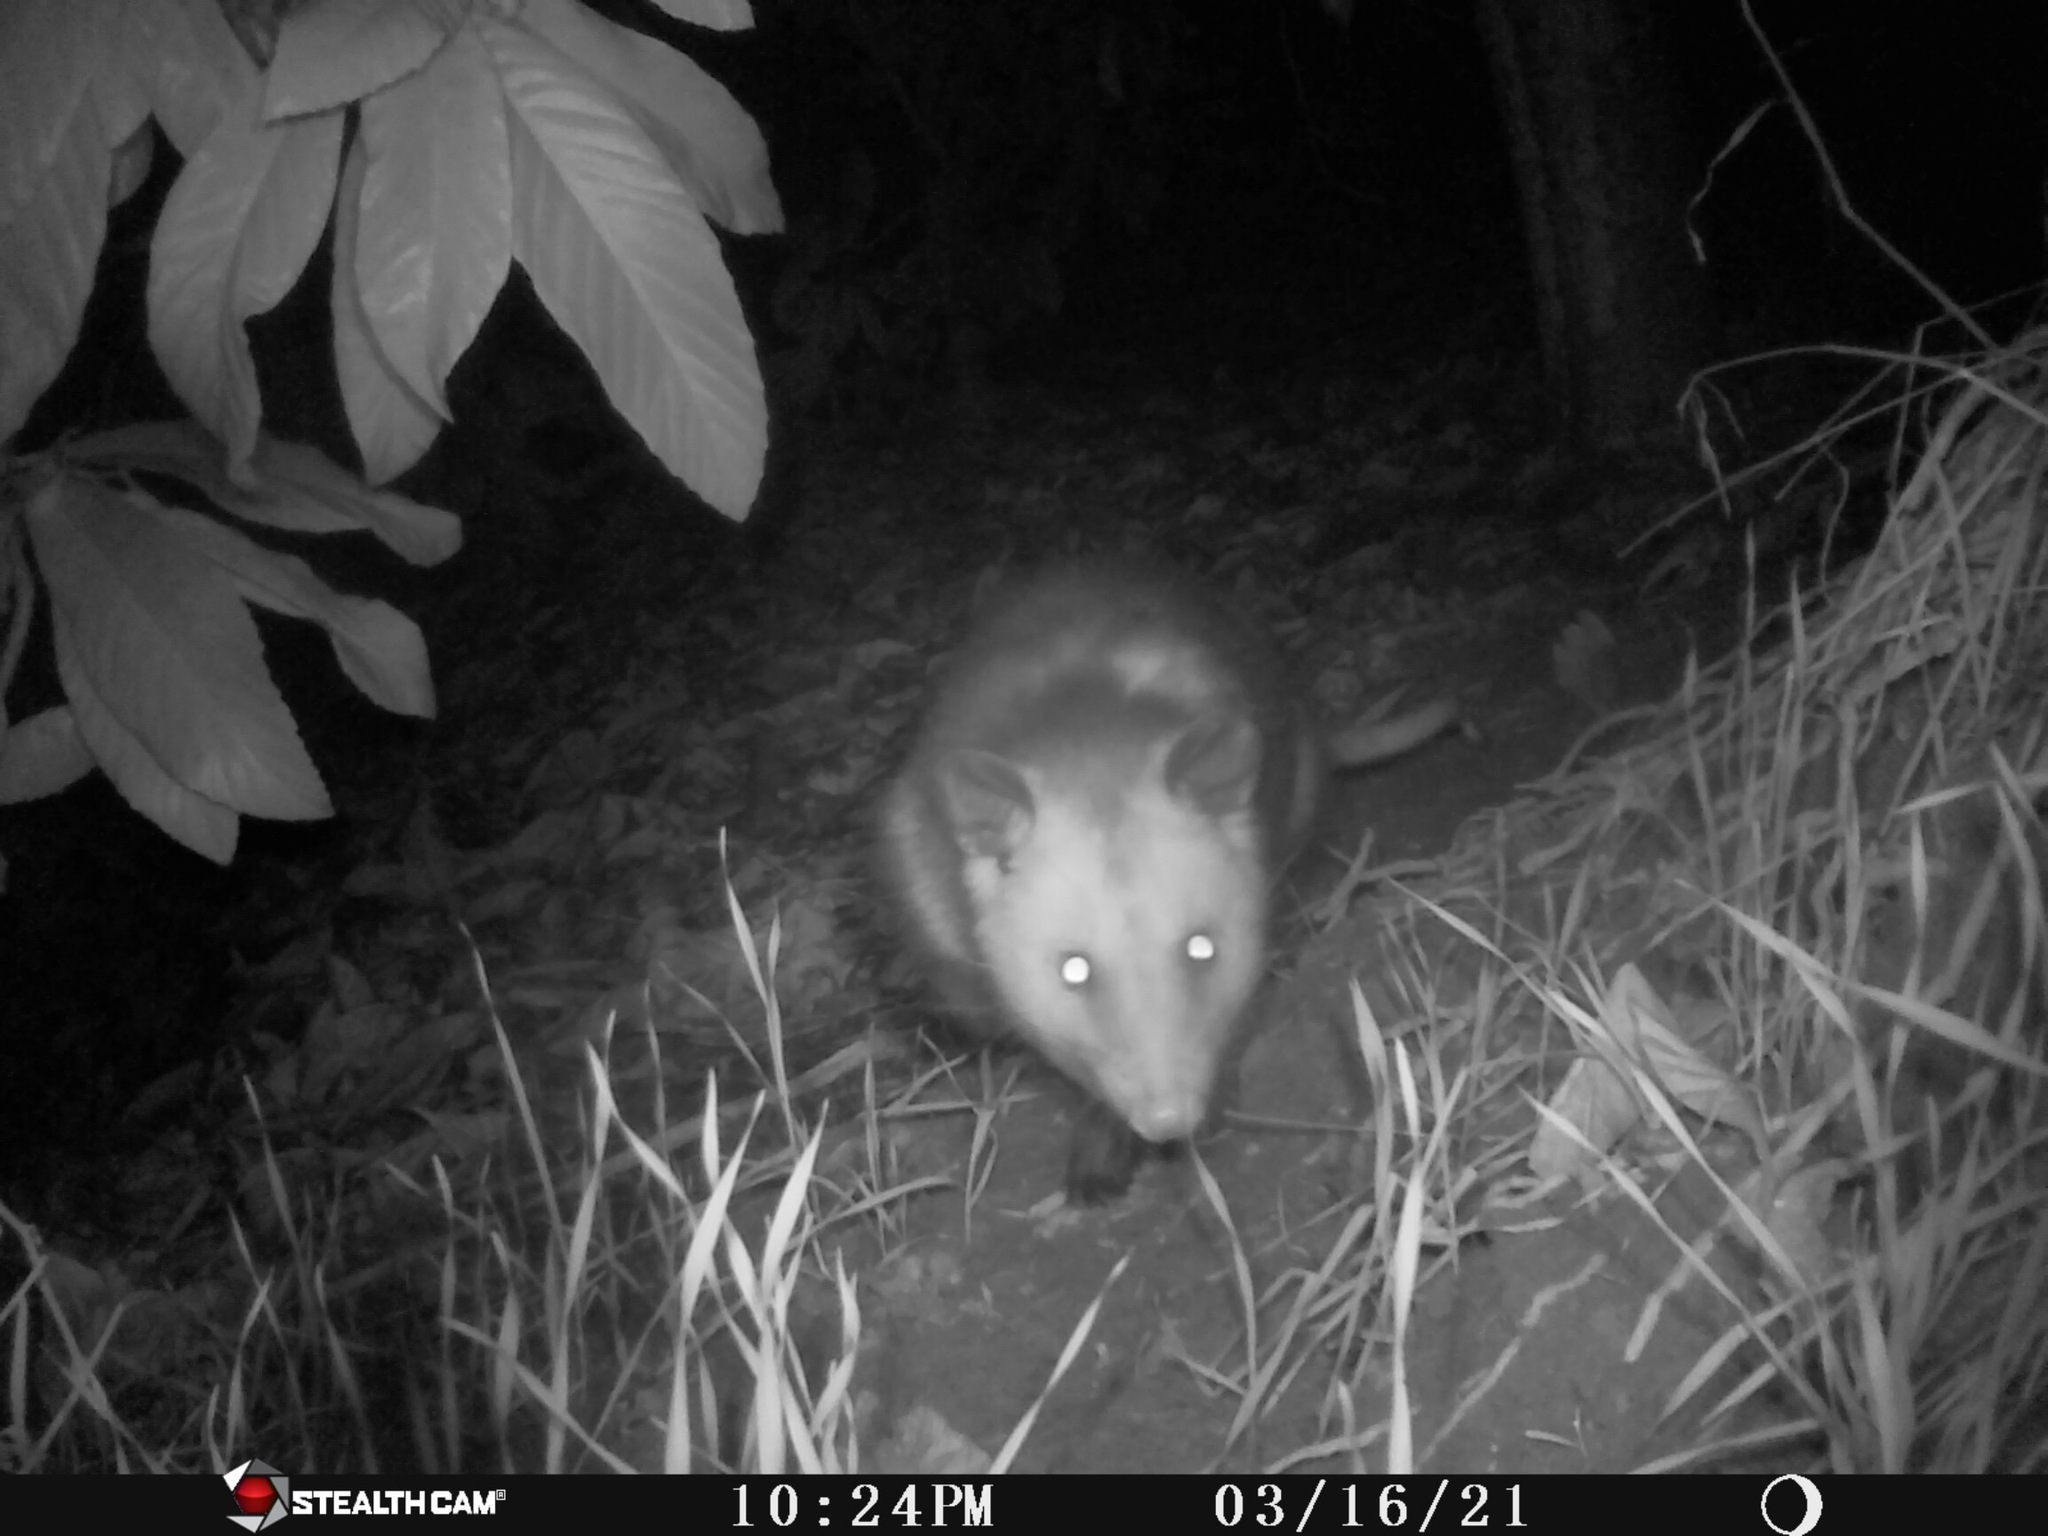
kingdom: Animalia
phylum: Chordata
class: Mammalia
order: Didelphimorphia
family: Didelphidae
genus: Didelphis
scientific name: Didelphis virginiana
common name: Virginia opossum
